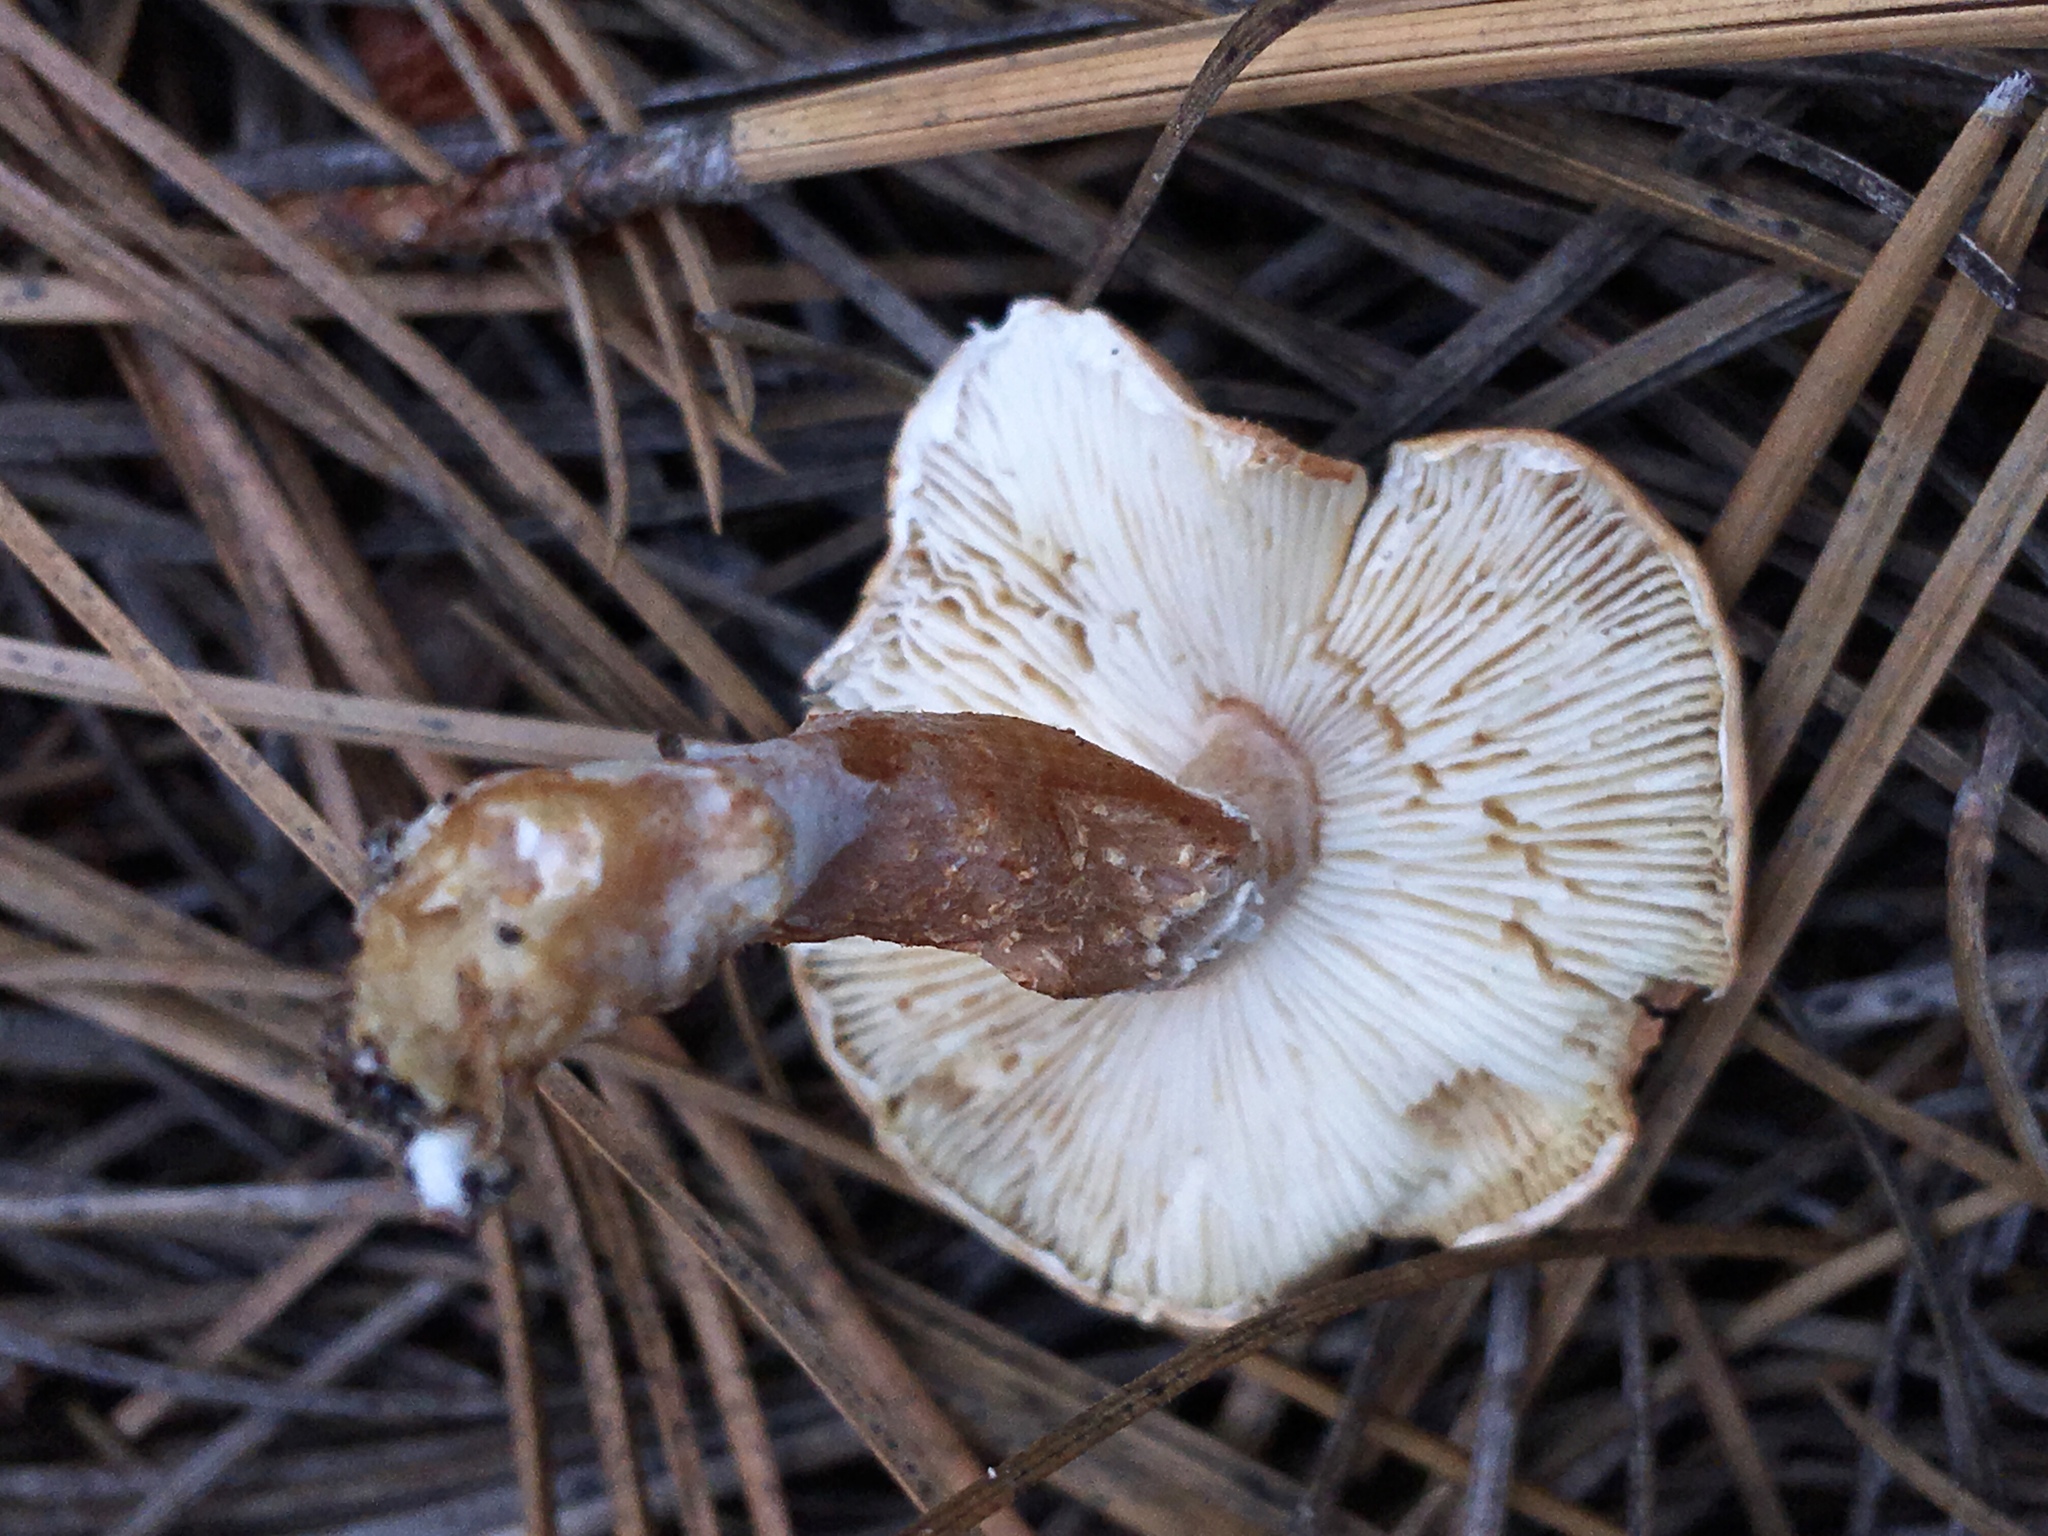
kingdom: Fungi
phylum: Basidiomycota
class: Agaricomycetes
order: Agaricales
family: Agaricaceae
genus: Cystodermella
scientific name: Cystodermella cinnabarina
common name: Cinnabar powdercap
